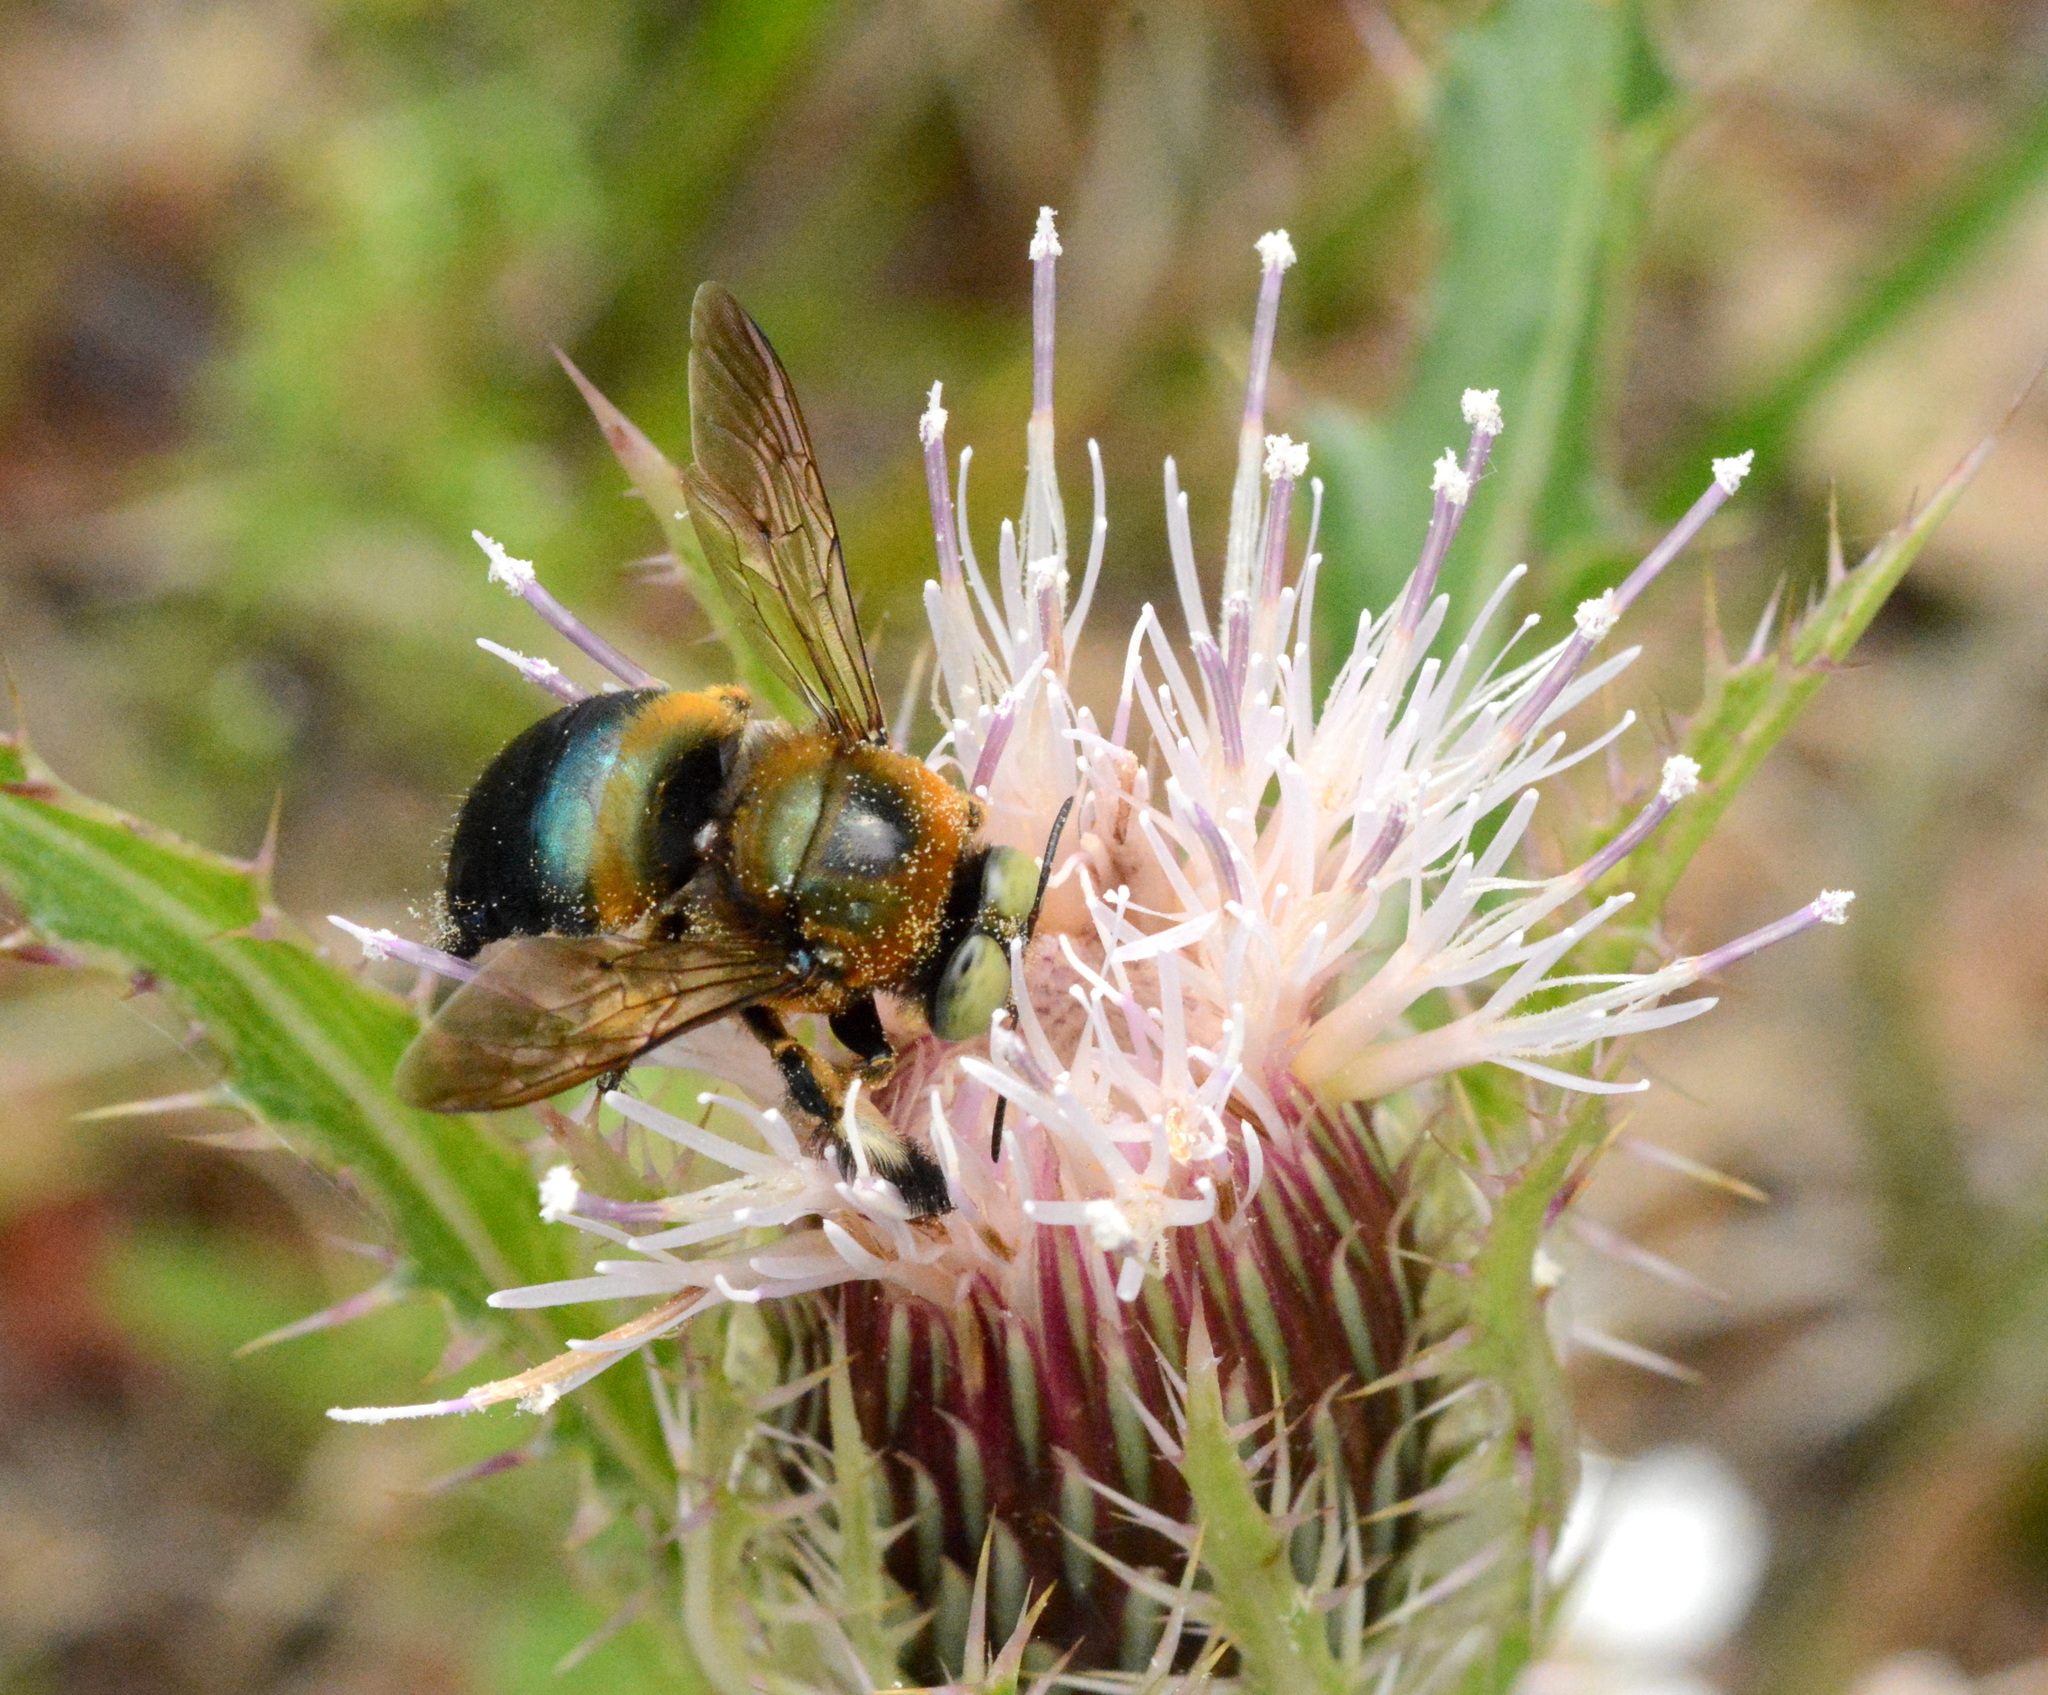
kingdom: Animalia
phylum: Arthropoda
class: Insecta
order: Hymenoptera
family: Apidae
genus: Xylocopa
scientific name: Xylocopa micans
